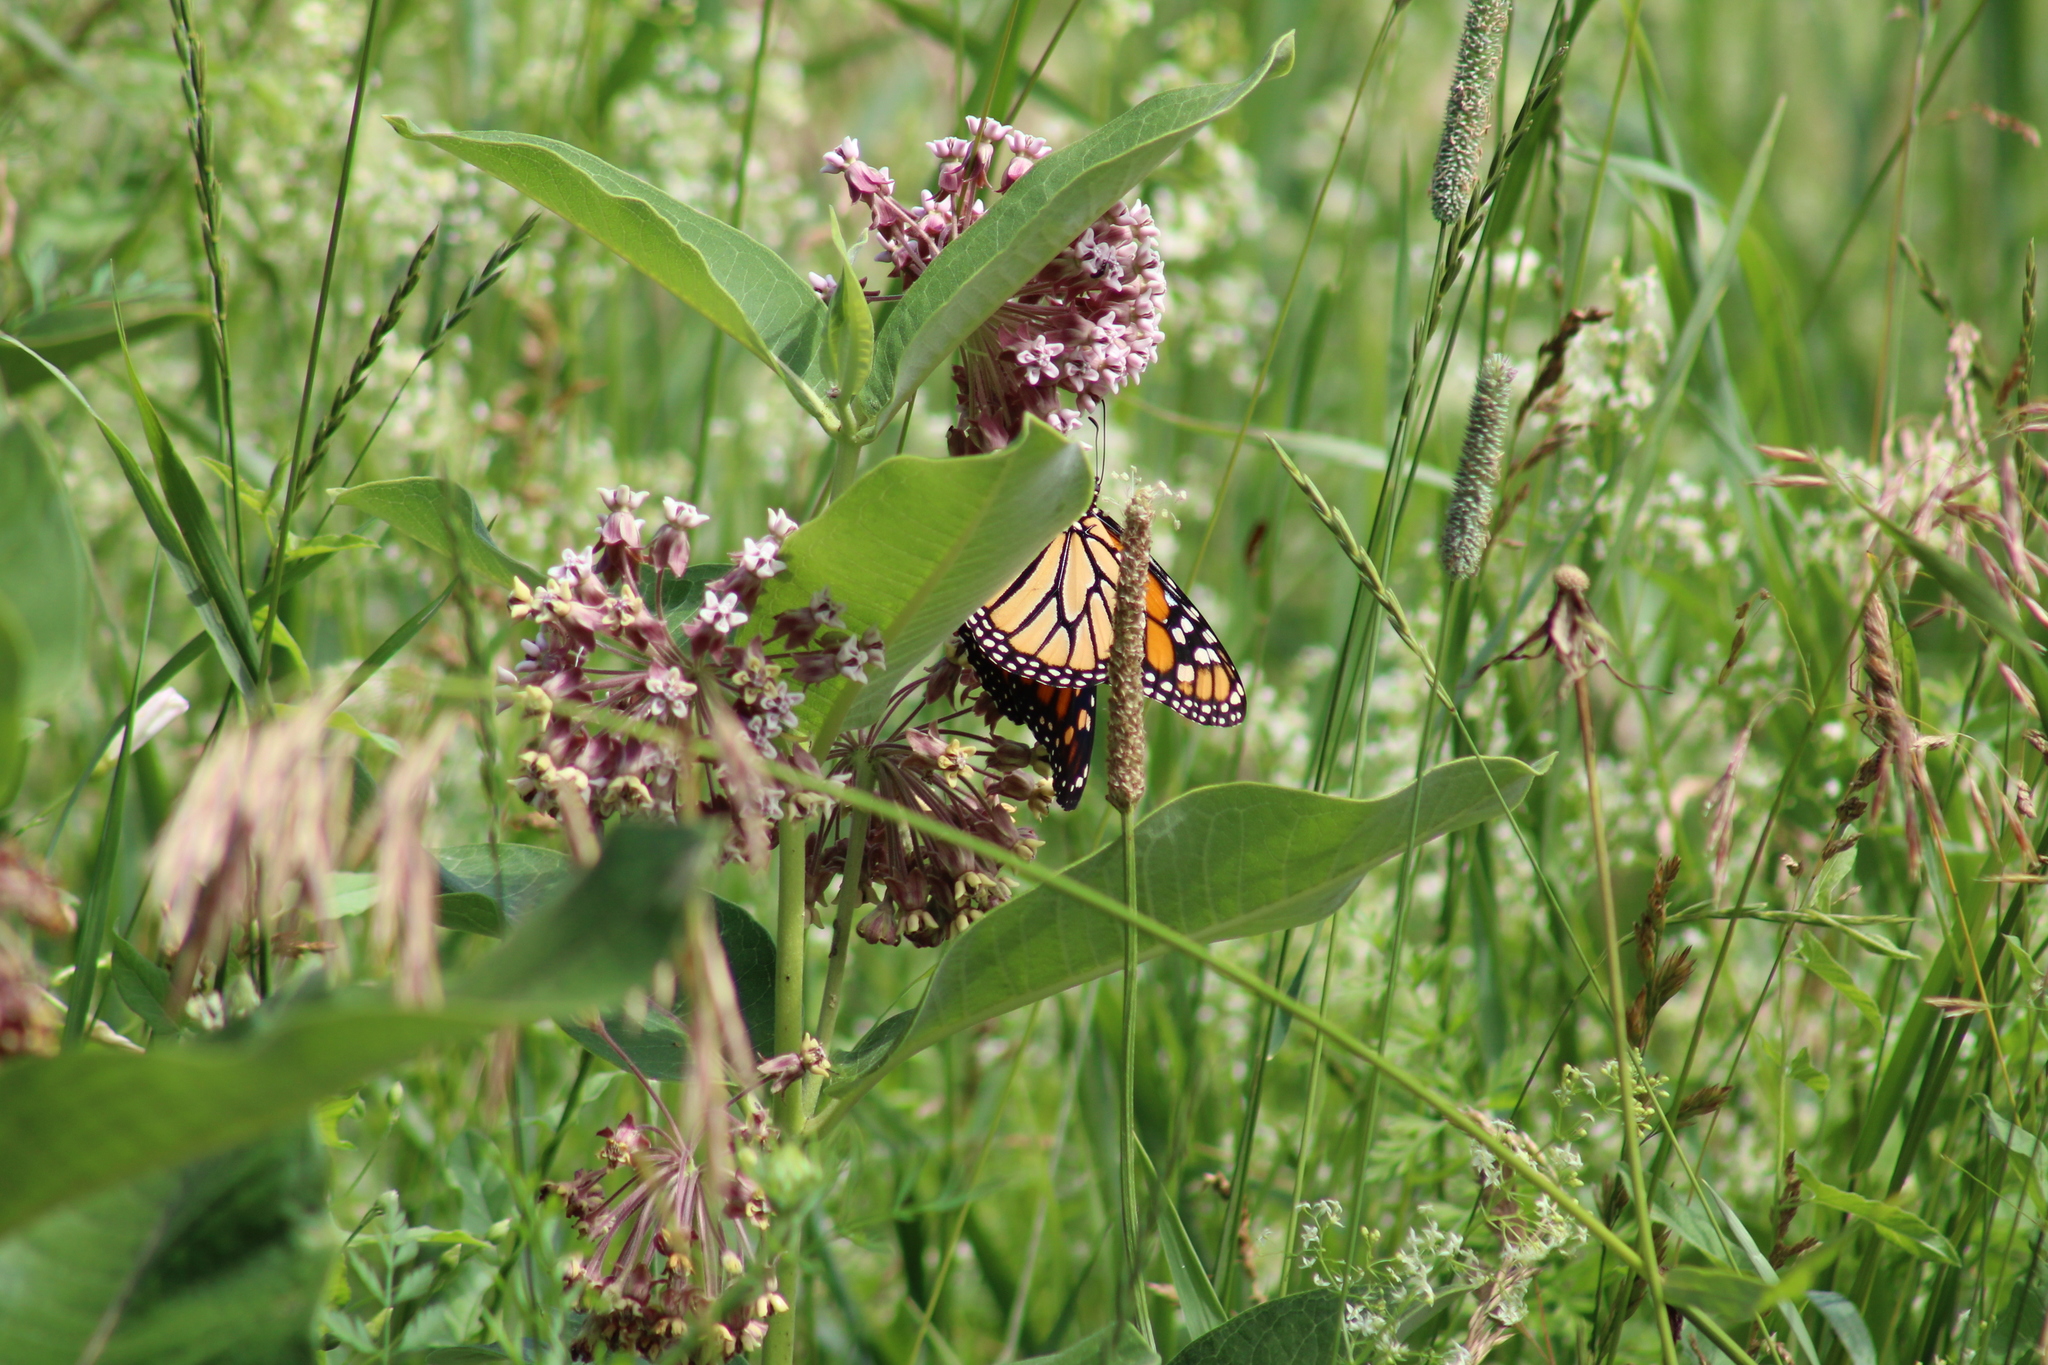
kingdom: Animalia
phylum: Arthropoda
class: Insecta
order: Lepidoptera
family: Nymphalidae
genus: Danaus
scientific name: Danaus plexippus
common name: Monarch
